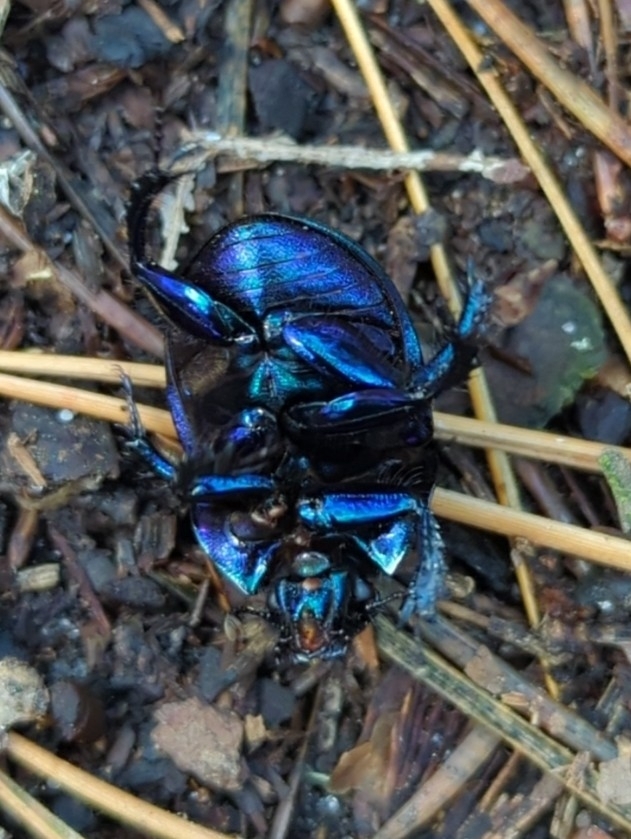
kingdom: Animalia
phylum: Arthropoda
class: Insecta
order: Coleoptera
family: Geotrupidae
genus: Anoplotrupes
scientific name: Anoplotrupes stercorosus
